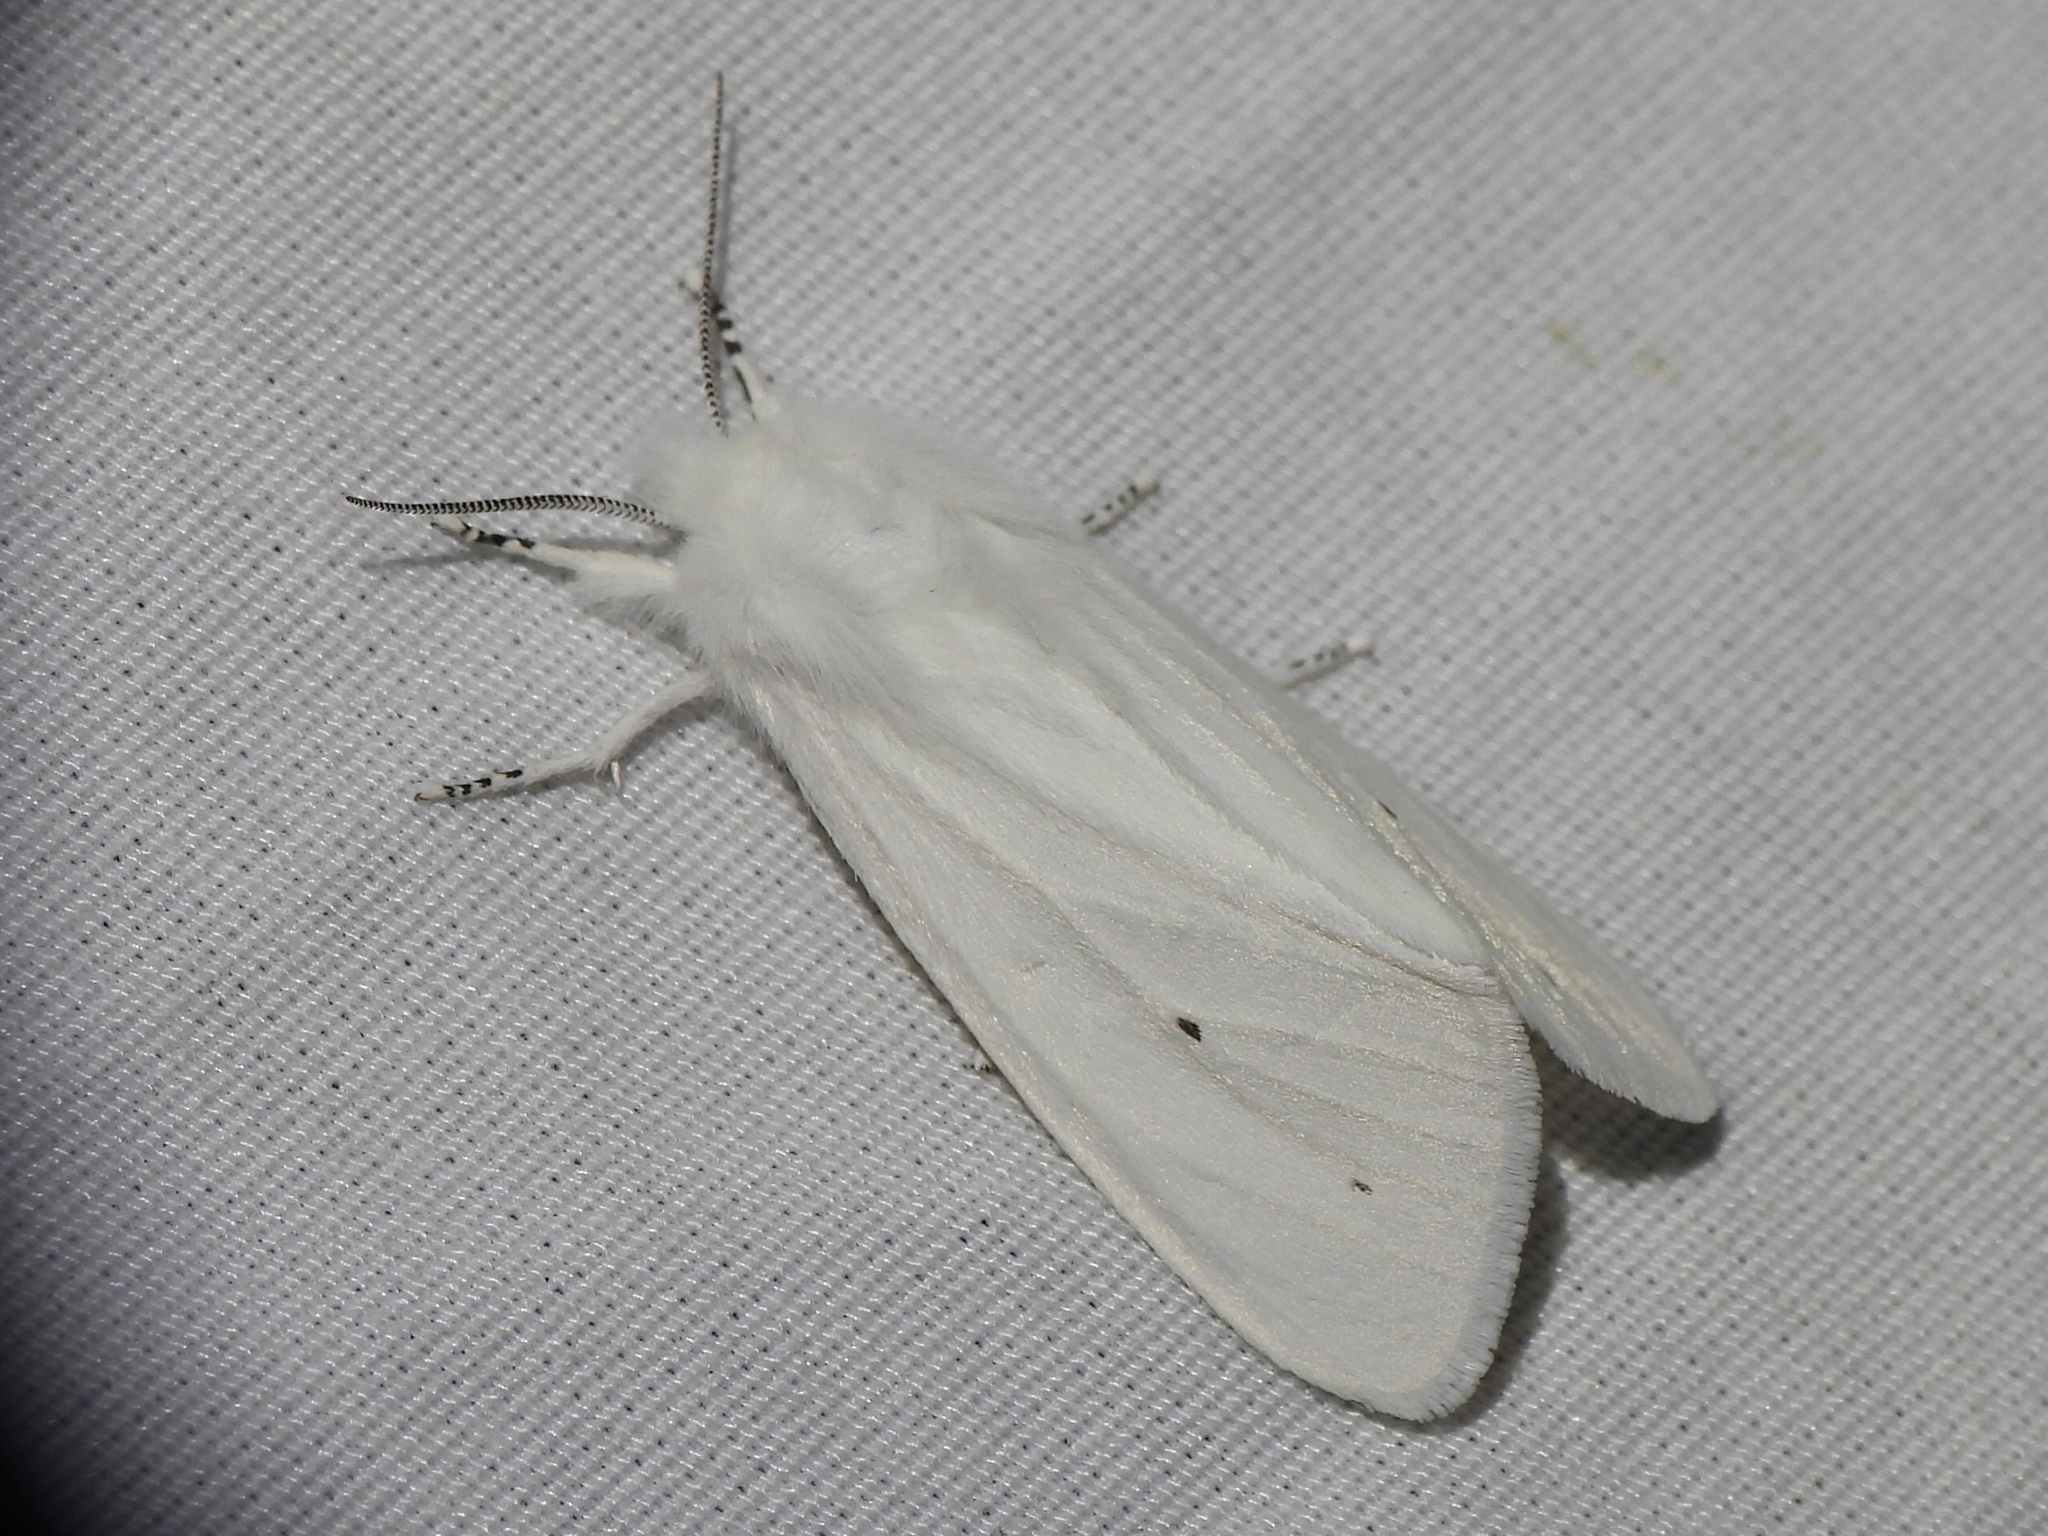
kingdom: Animalia
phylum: Arthropoda
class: Insecta
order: Lepidoptera
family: Erebidae
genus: Spilosoma
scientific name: Spilosoma virginica
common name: Virginia tiger moth
